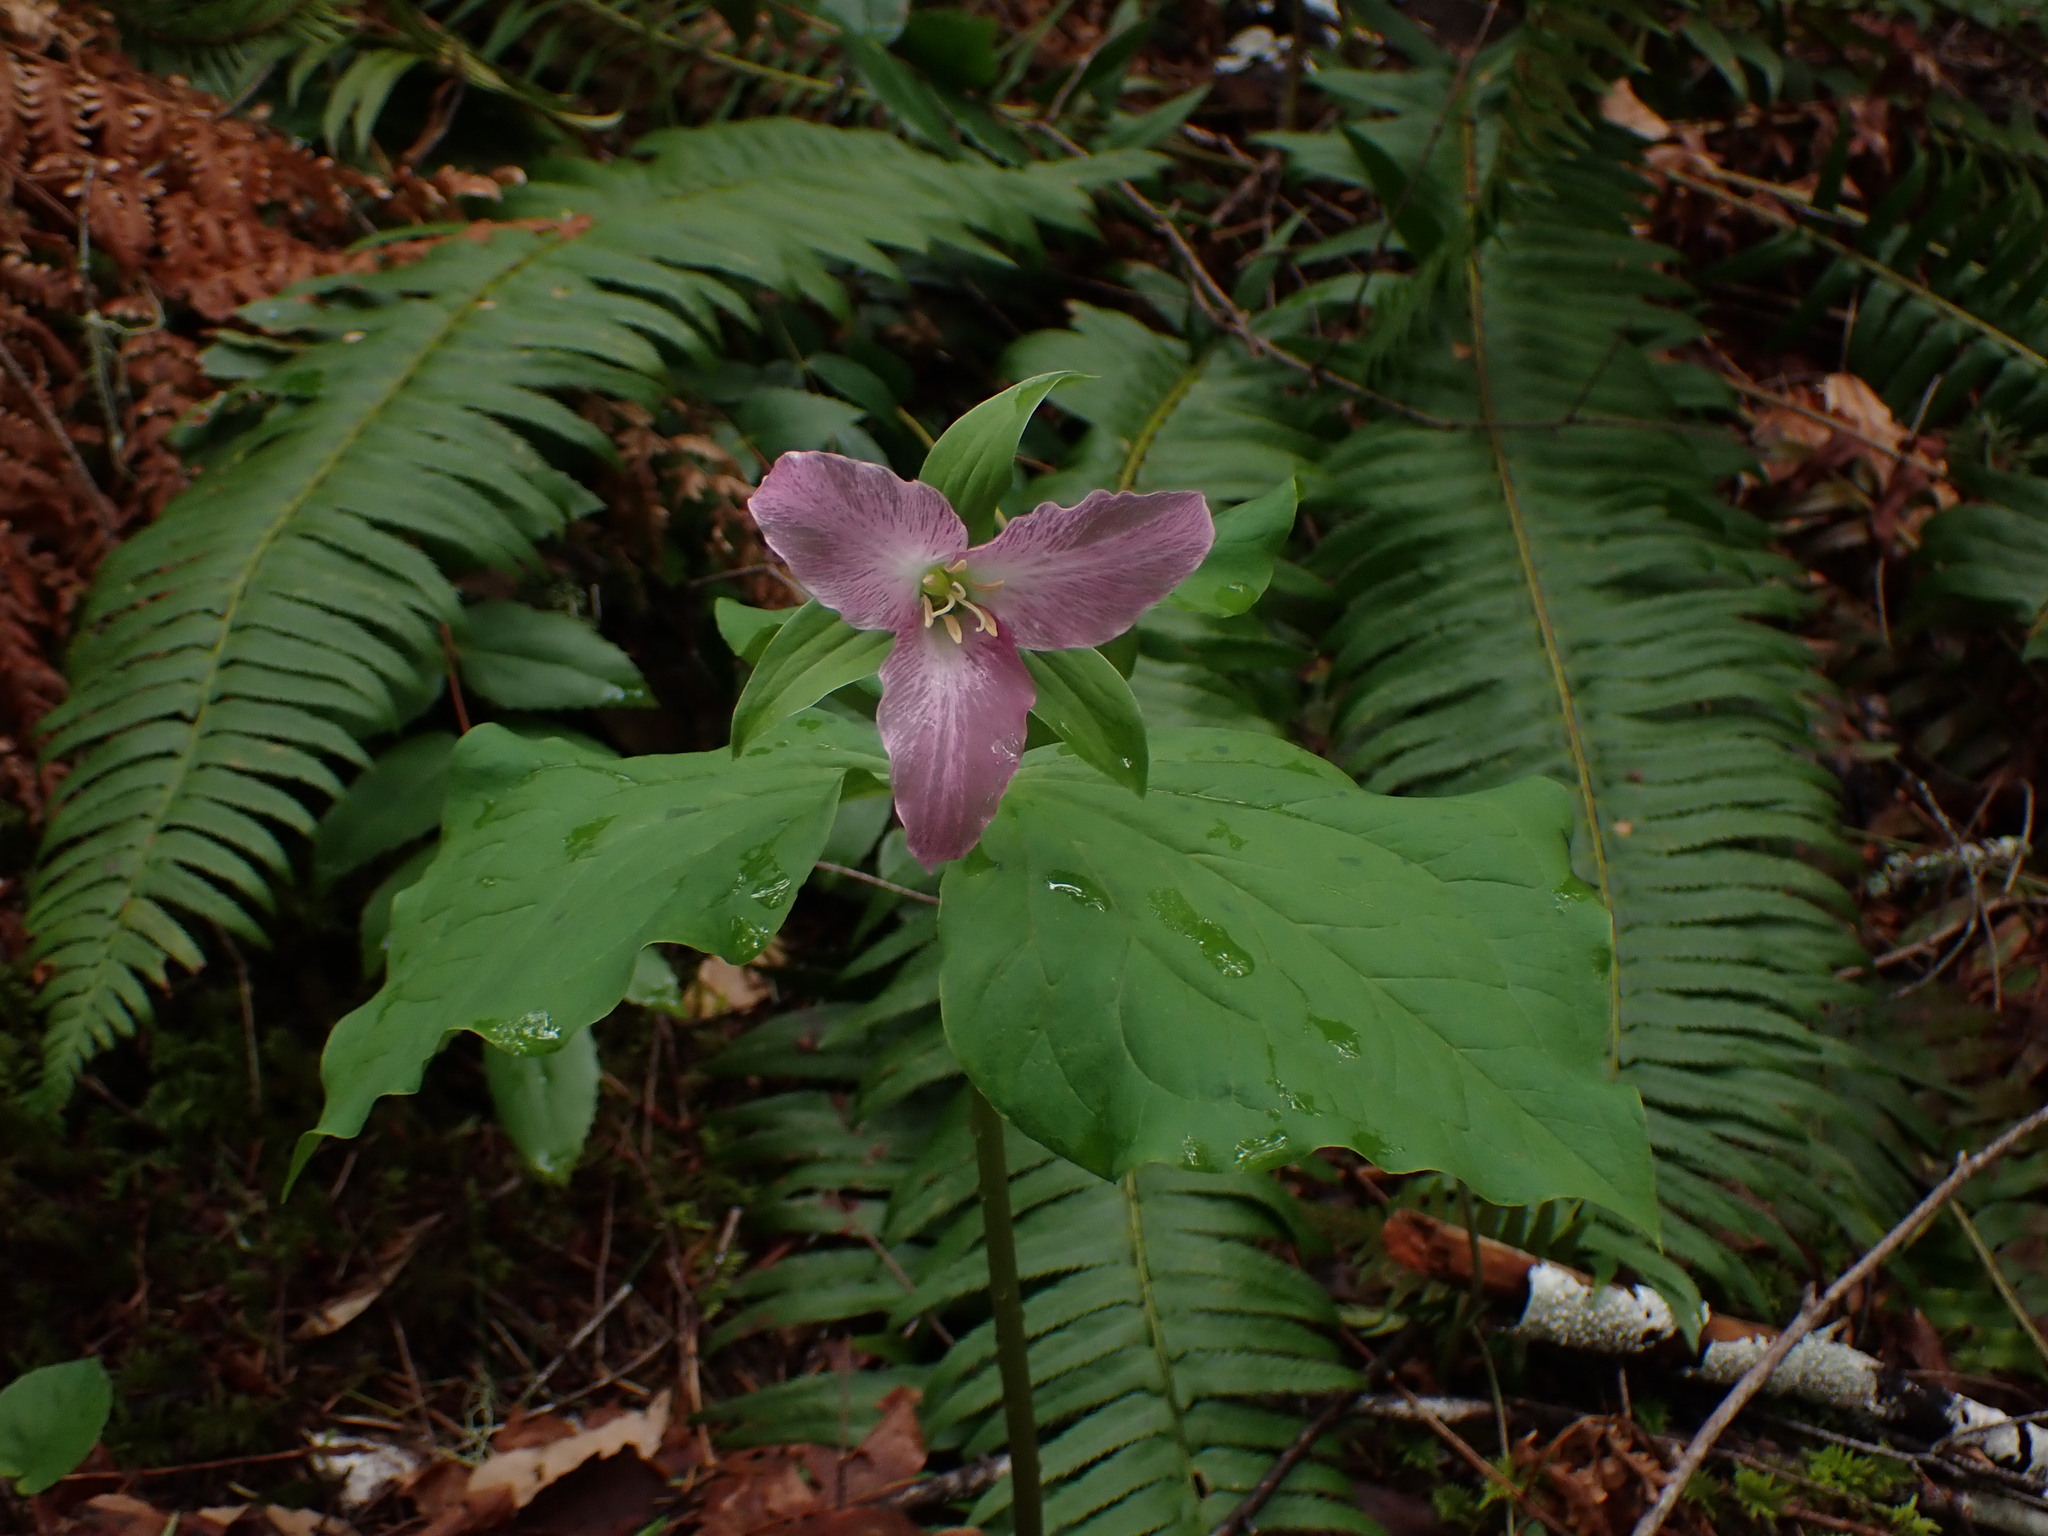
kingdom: Plantae
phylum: Tracheophyta
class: Liliopsida
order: Liliales
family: Melanthiaceae
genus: Trillium
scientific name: Trillium ovatum
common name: Pacific trillium
